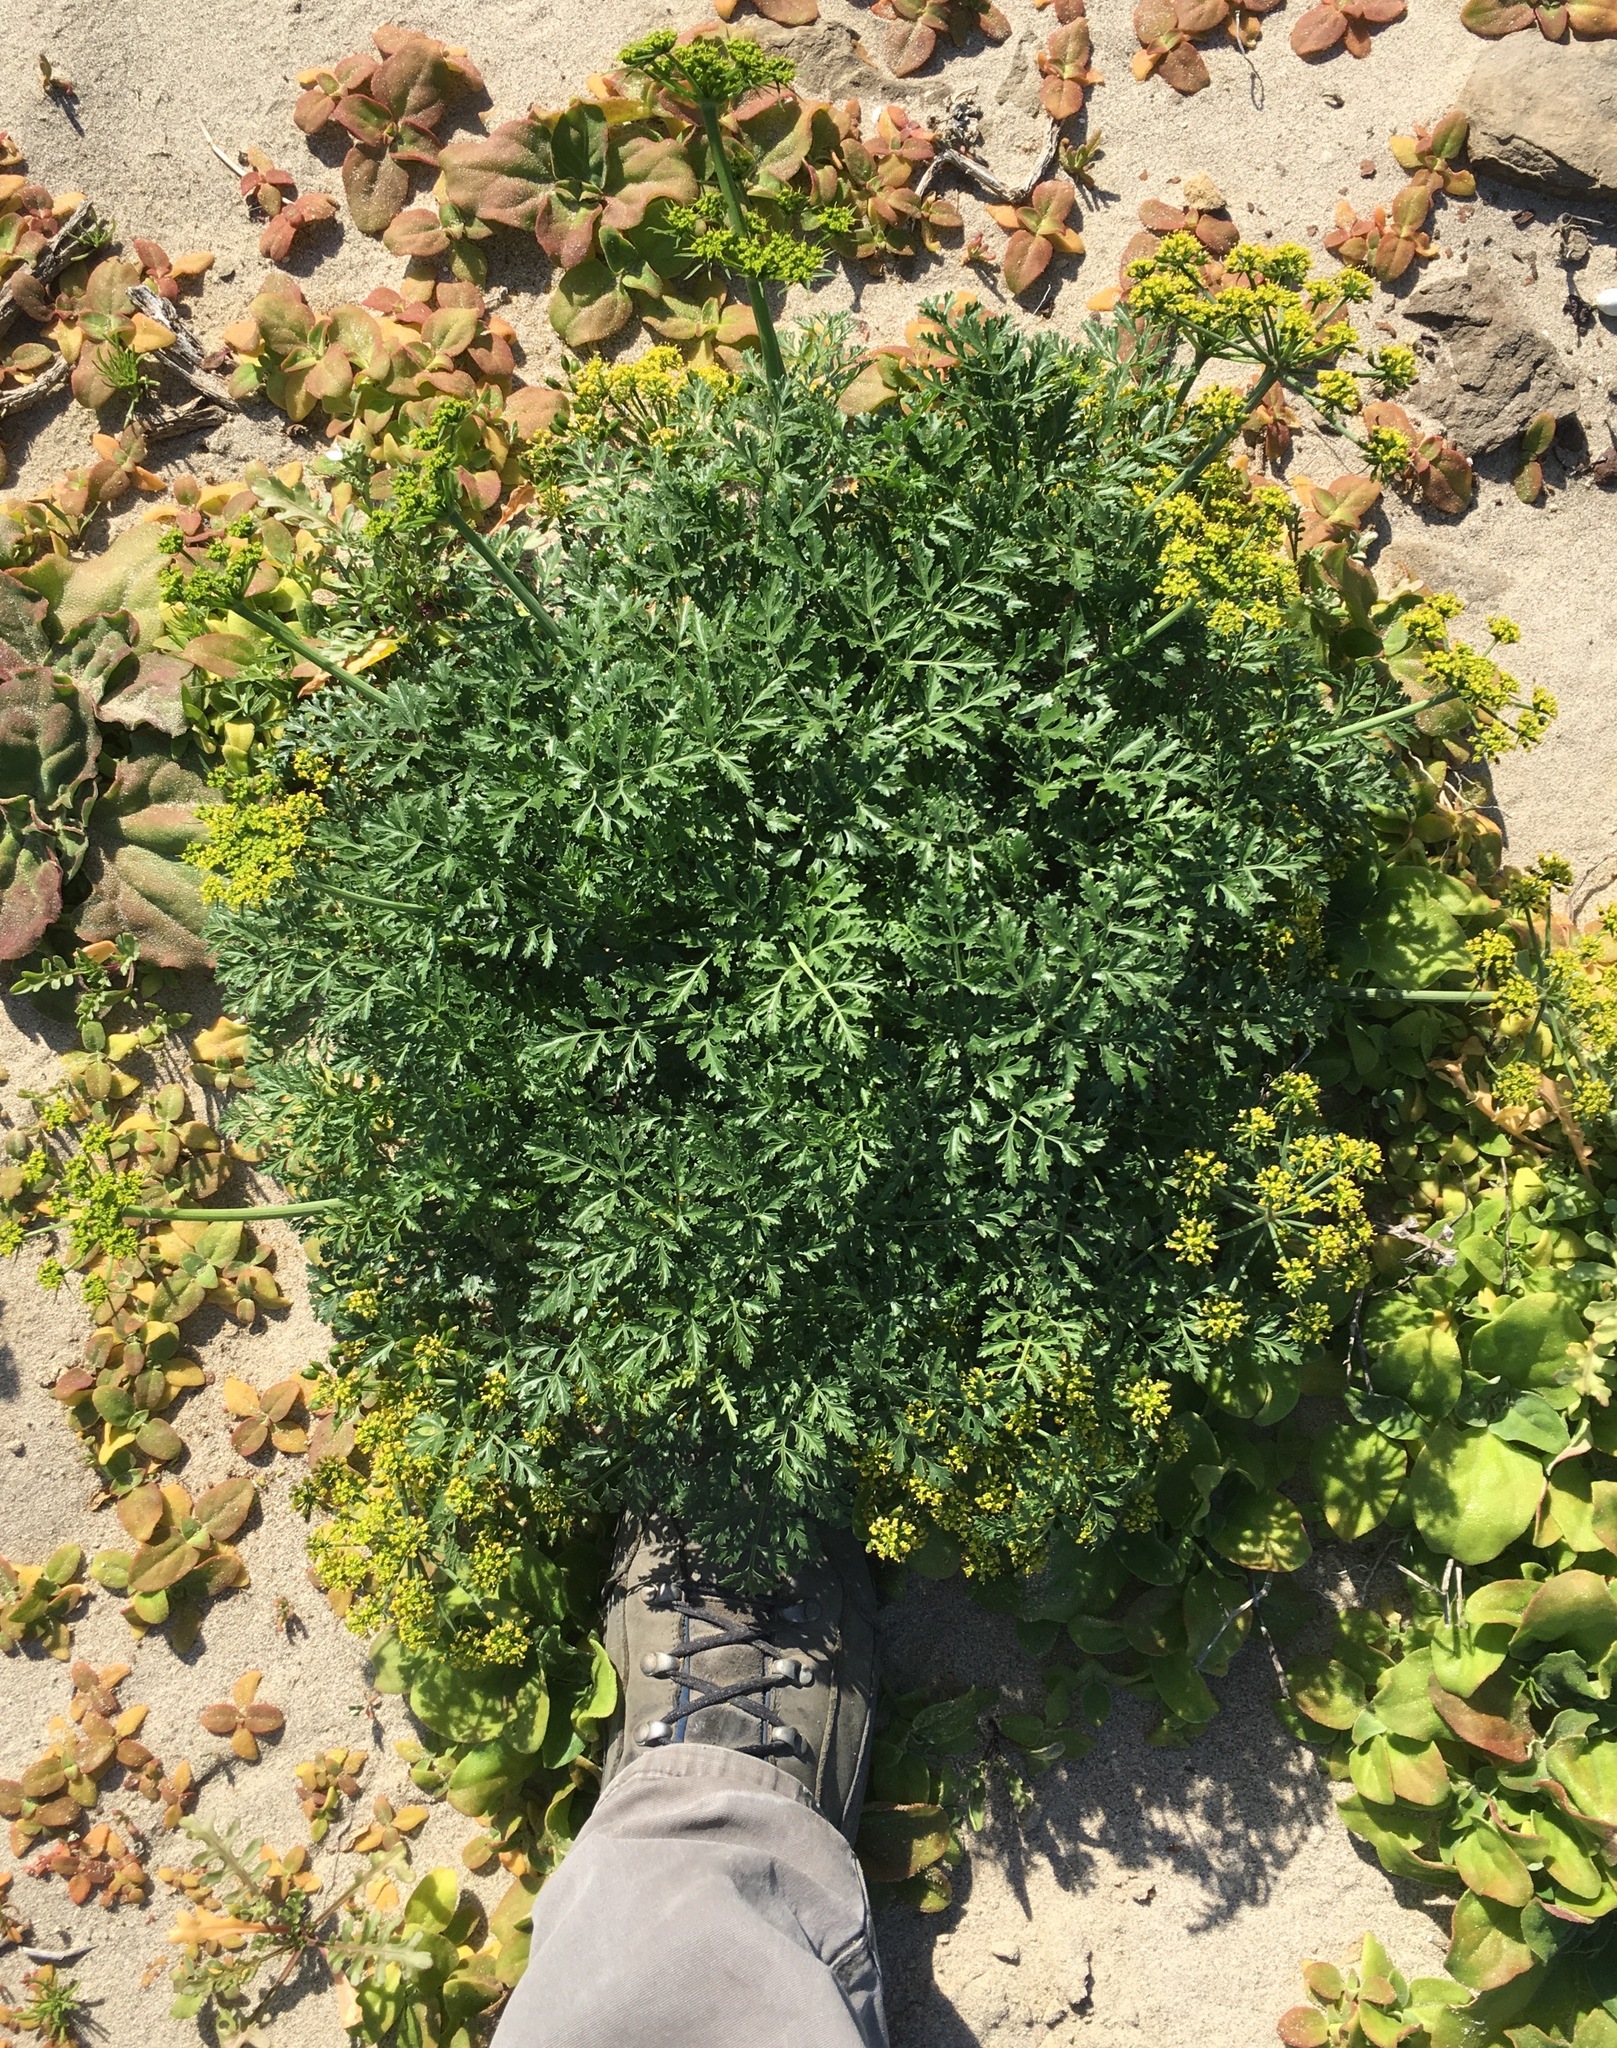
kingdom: Plantae
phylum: Tracheophyta
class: Magnoliopsida
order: Apiales
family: Apiaceae
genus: Lomatium
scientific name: Lomatium insulare
